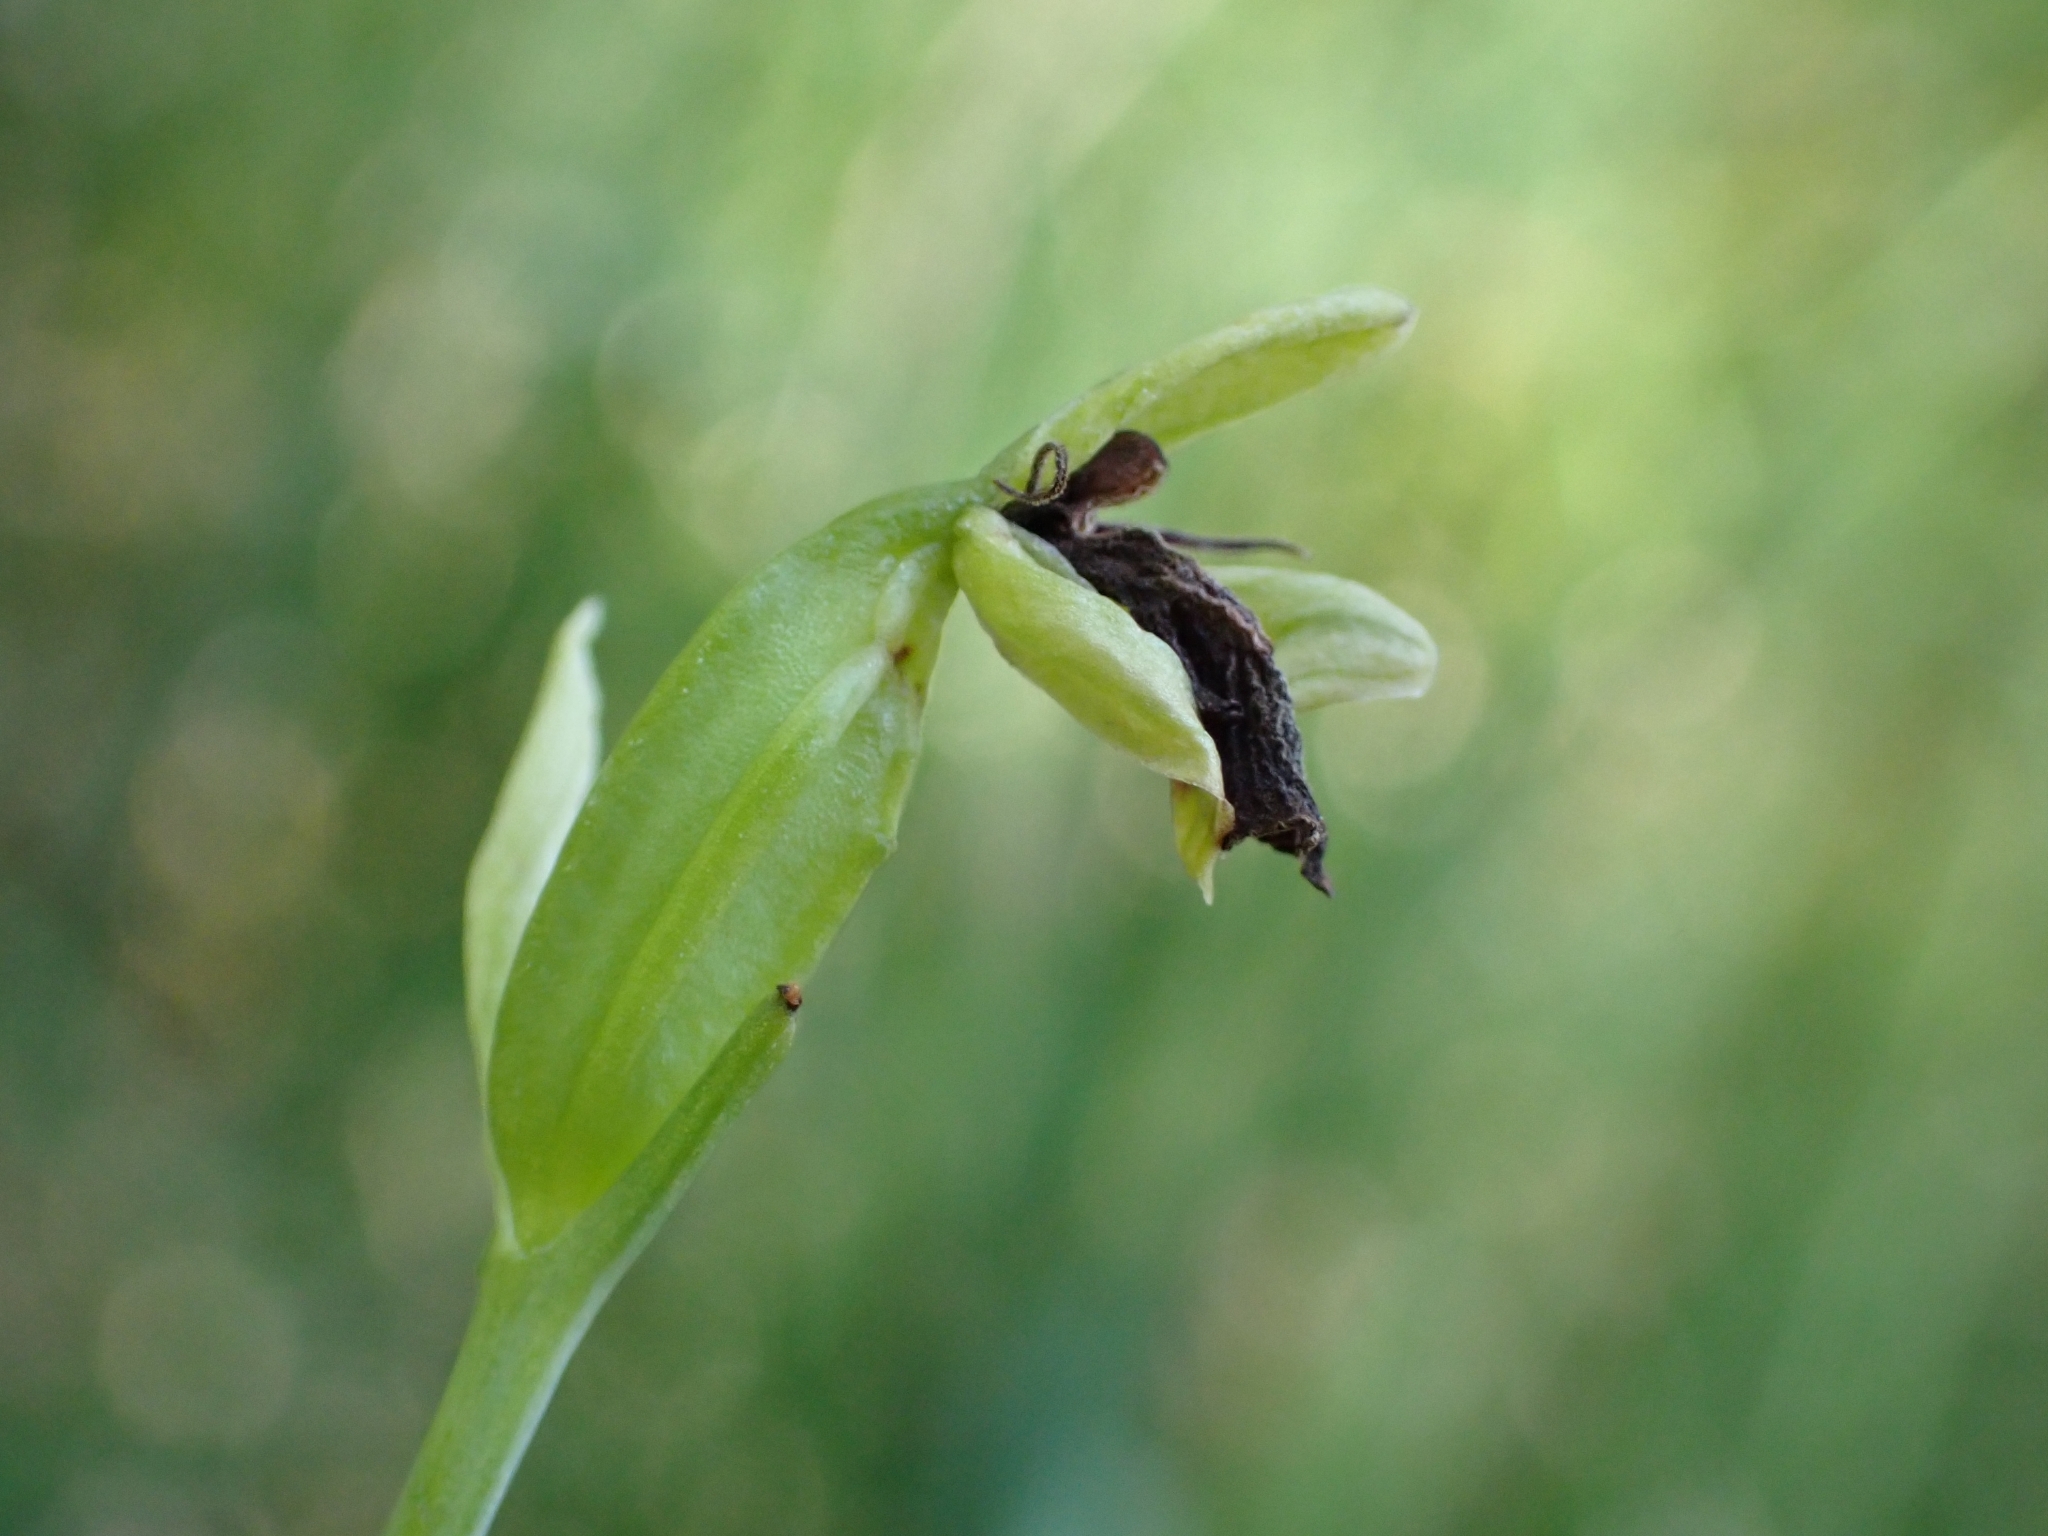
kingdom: Plantae
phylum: Tracheophyta
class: Liliopsida
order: Asparagales
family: Orchidaceae
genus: Ophrys
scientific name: Ophrys insectifera
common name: Fly orchid
